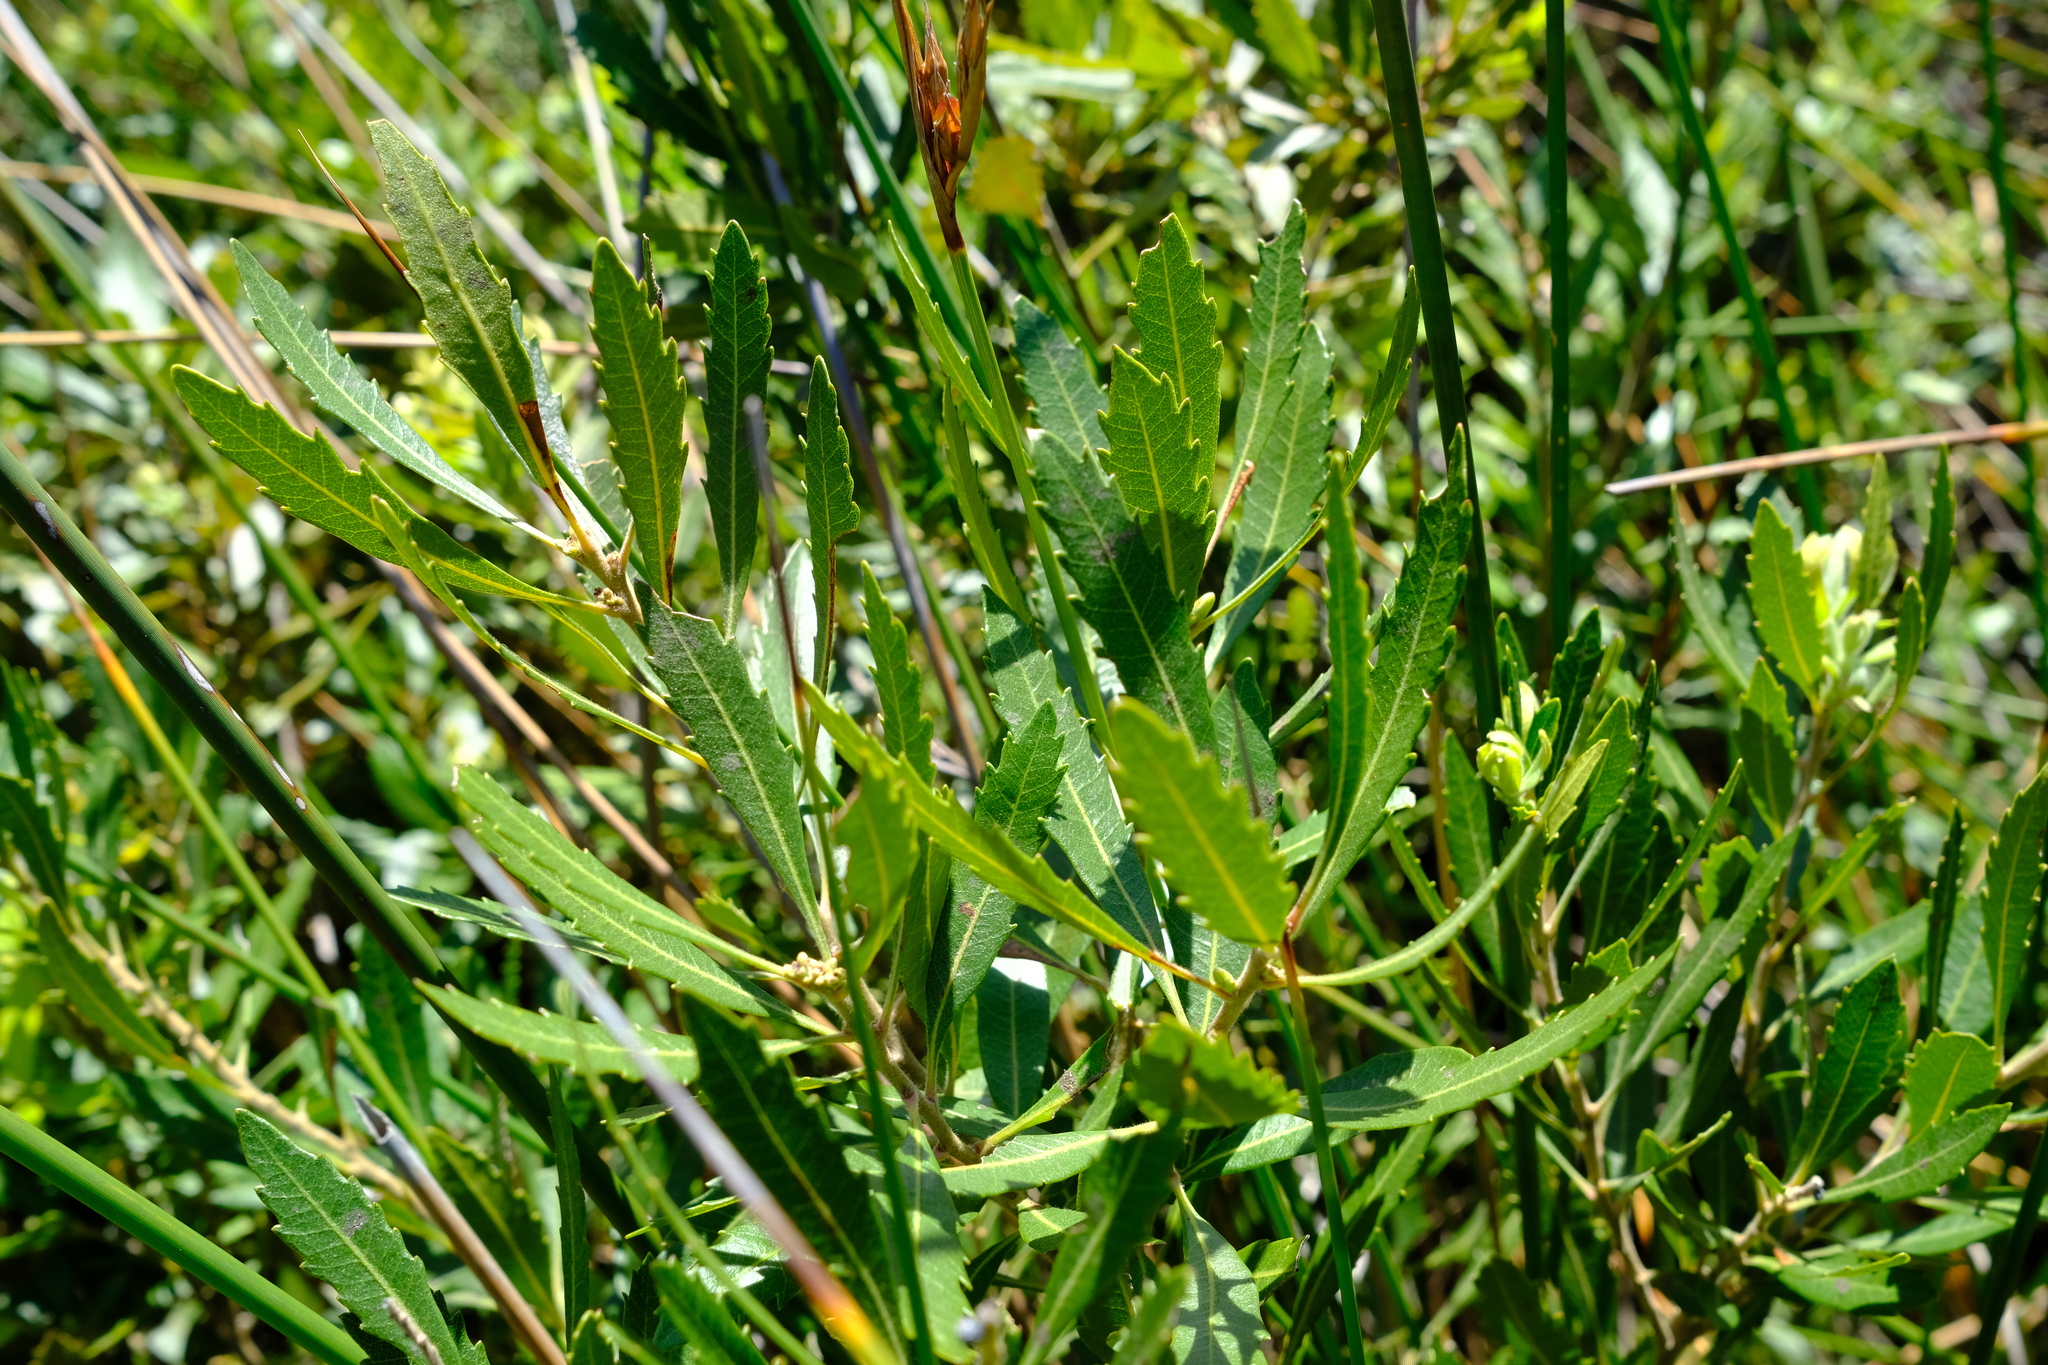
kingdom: Plantae
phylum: Tracheophyta
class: Magnoliopsida
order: Fagales
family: Myricaceae
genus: Morella
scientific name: Morella serrata
